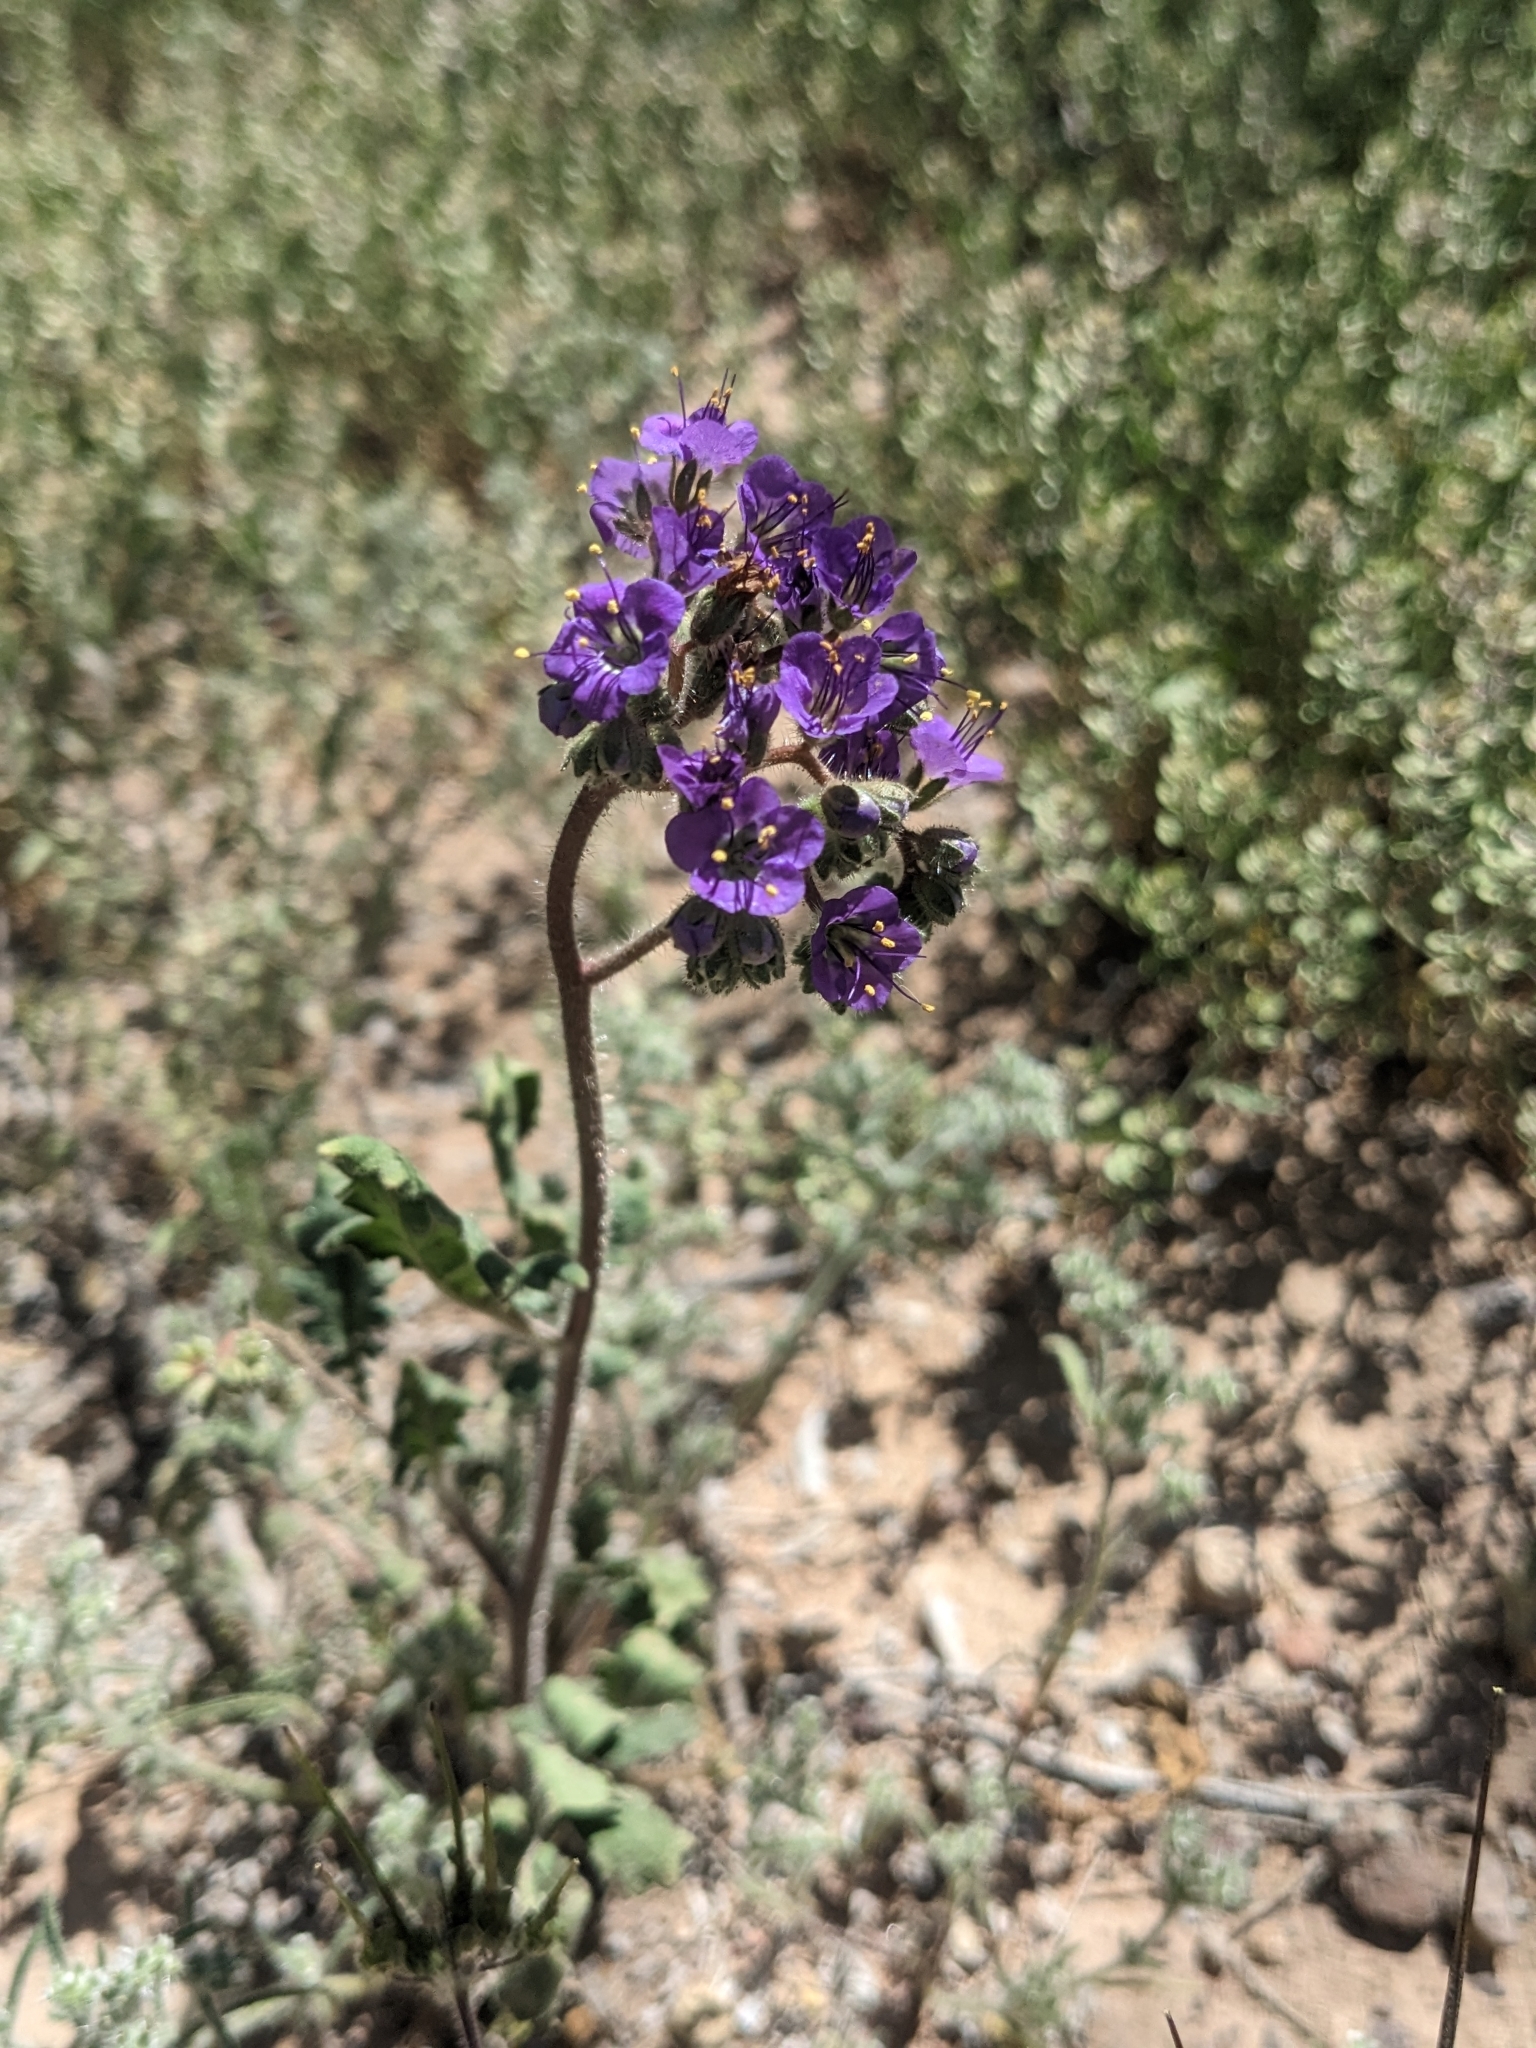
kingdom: Plantae
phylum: Tracheophyta
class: Magnoliopsida
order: Boraginales
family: Hydrophyllaceae
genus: Phacelia
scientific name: Phacelia crenulata
